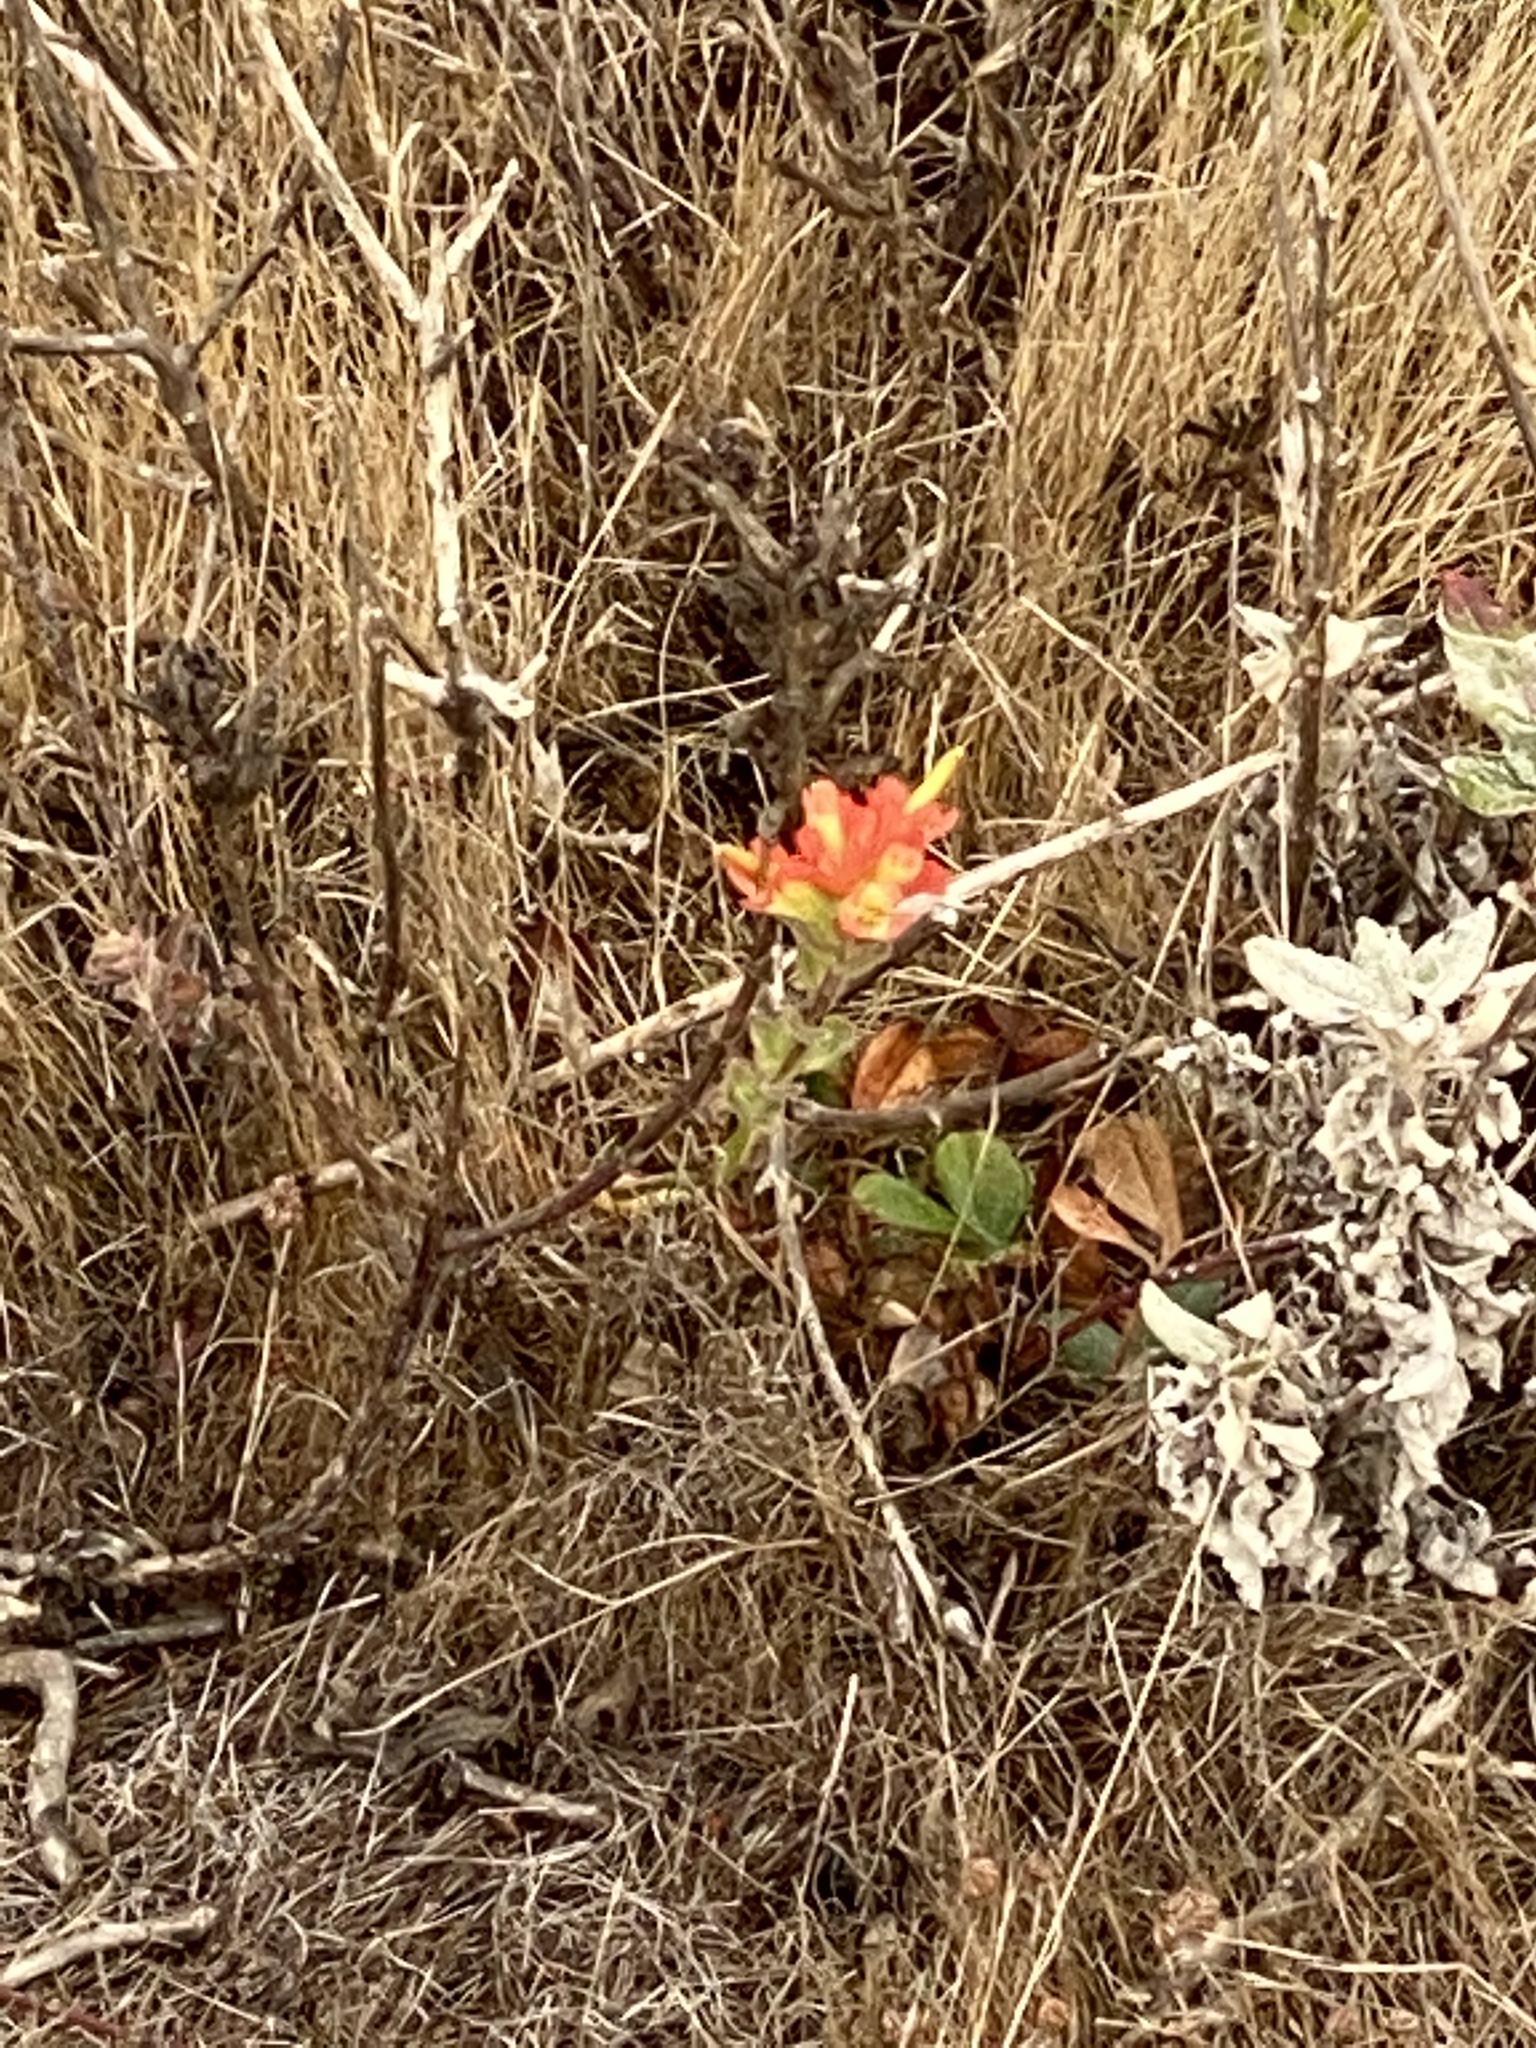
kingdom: Plantae
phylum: Tracheophyta
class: Magnoliopsida
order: Lamiales
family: Orobanchaceae
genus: Castilleja
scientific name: Castilleja affinis
